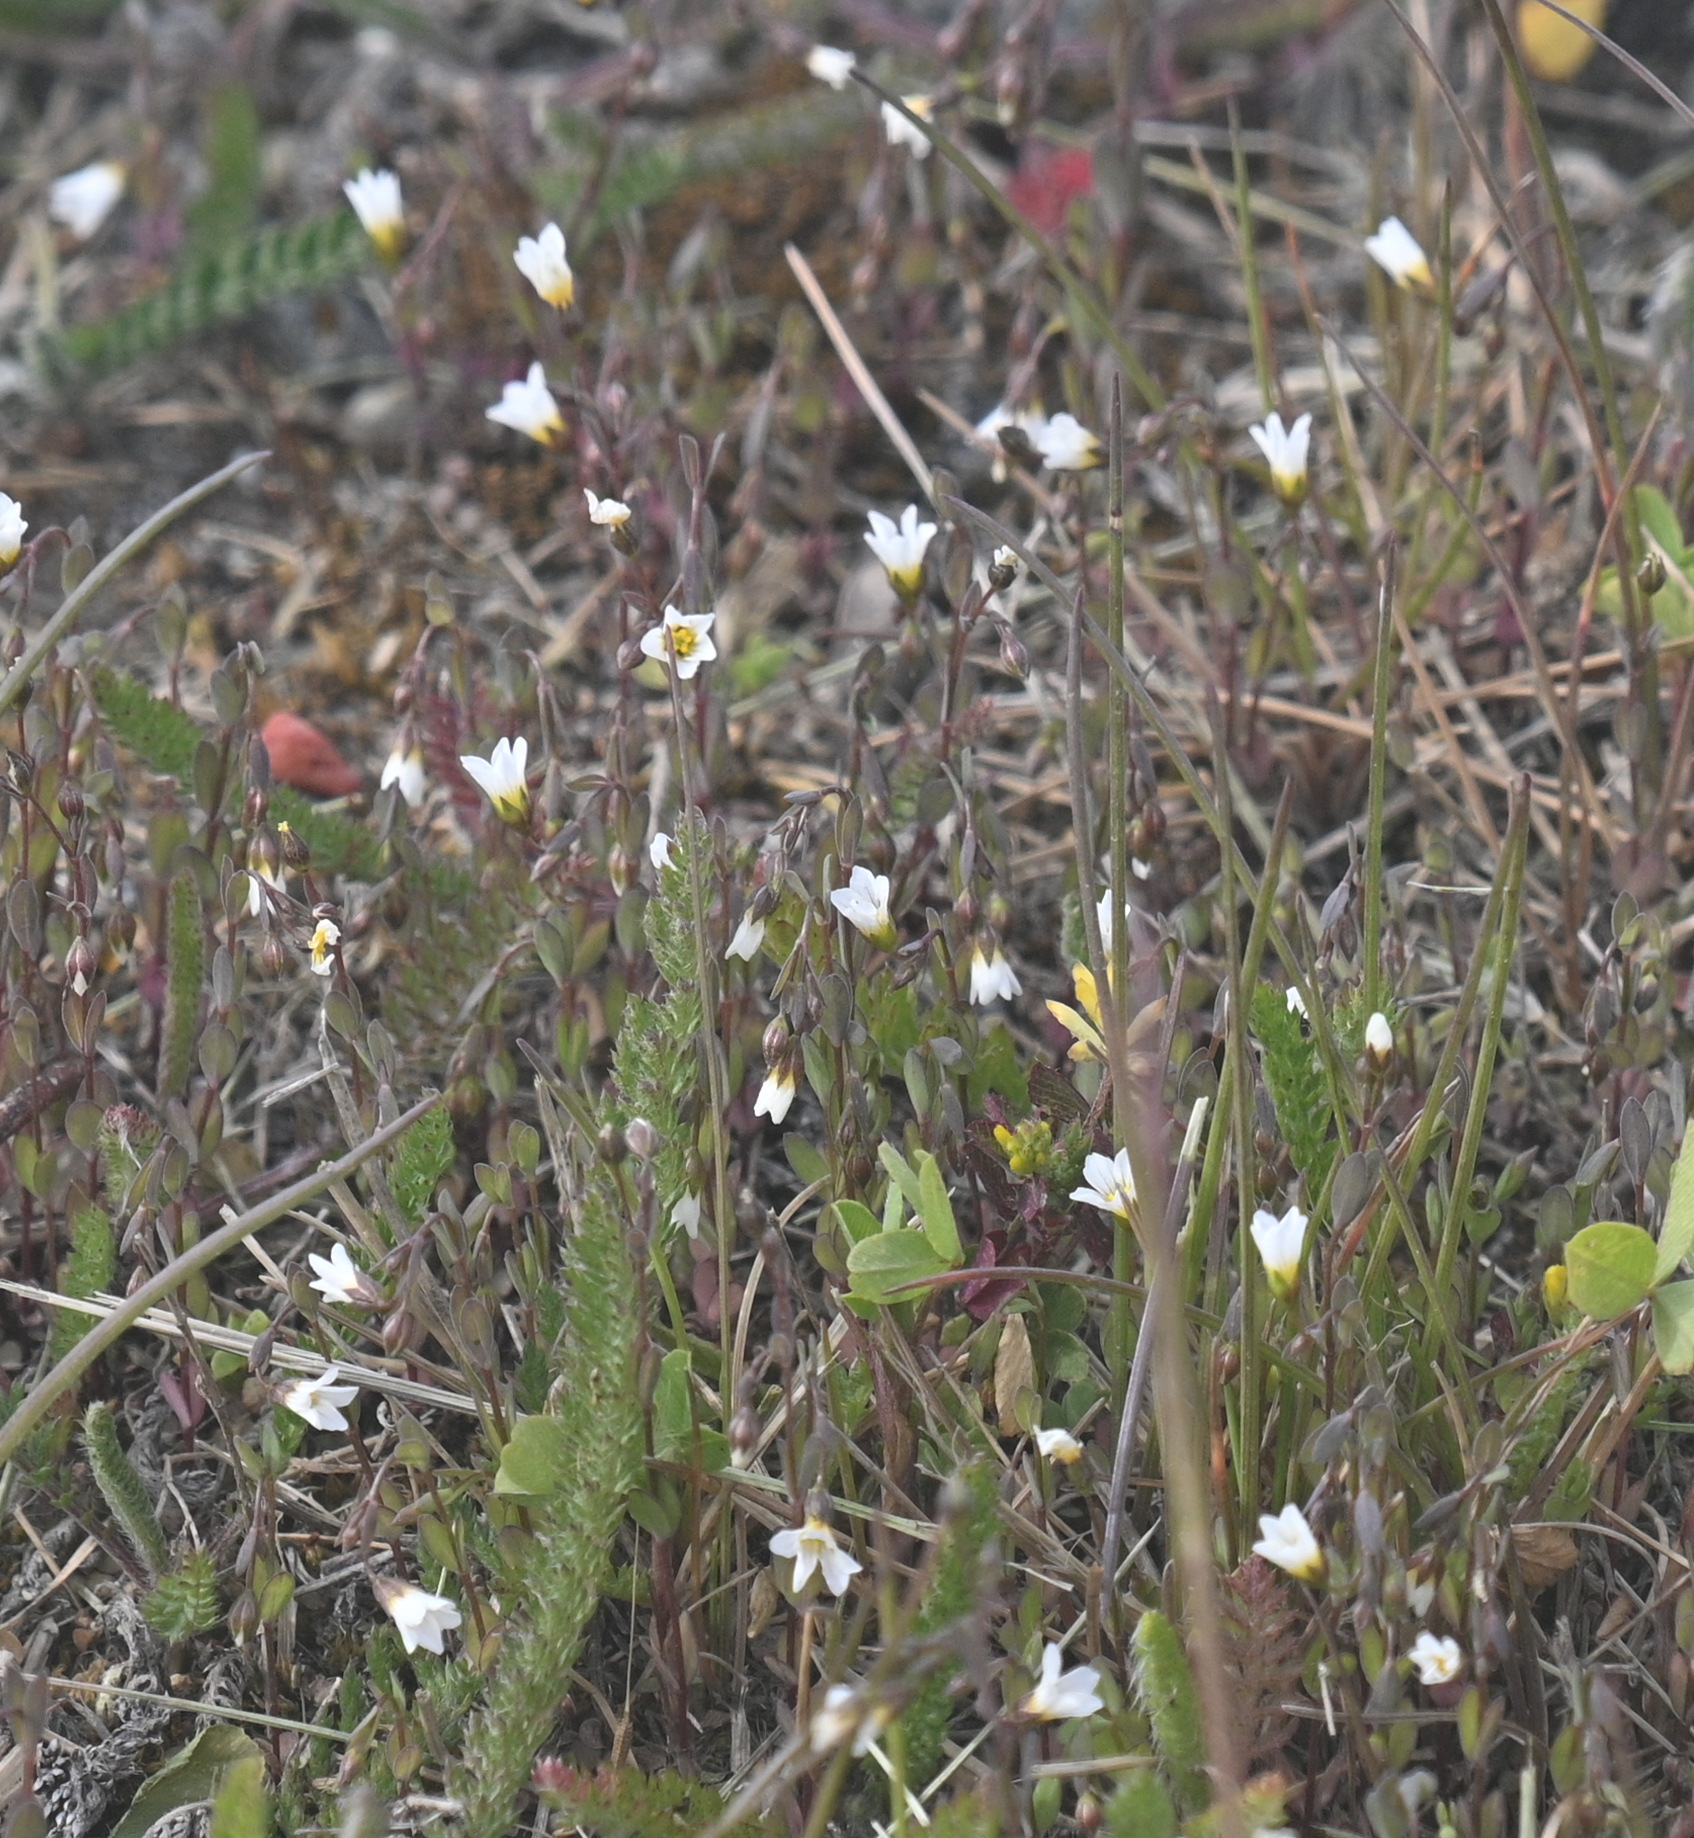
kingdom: Plantae
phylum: Tracheophyta
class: Magnoliopsida
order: Malpighiales
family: Linaceae
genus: Linum
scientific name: Linum catharticum
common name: Fairy flax
